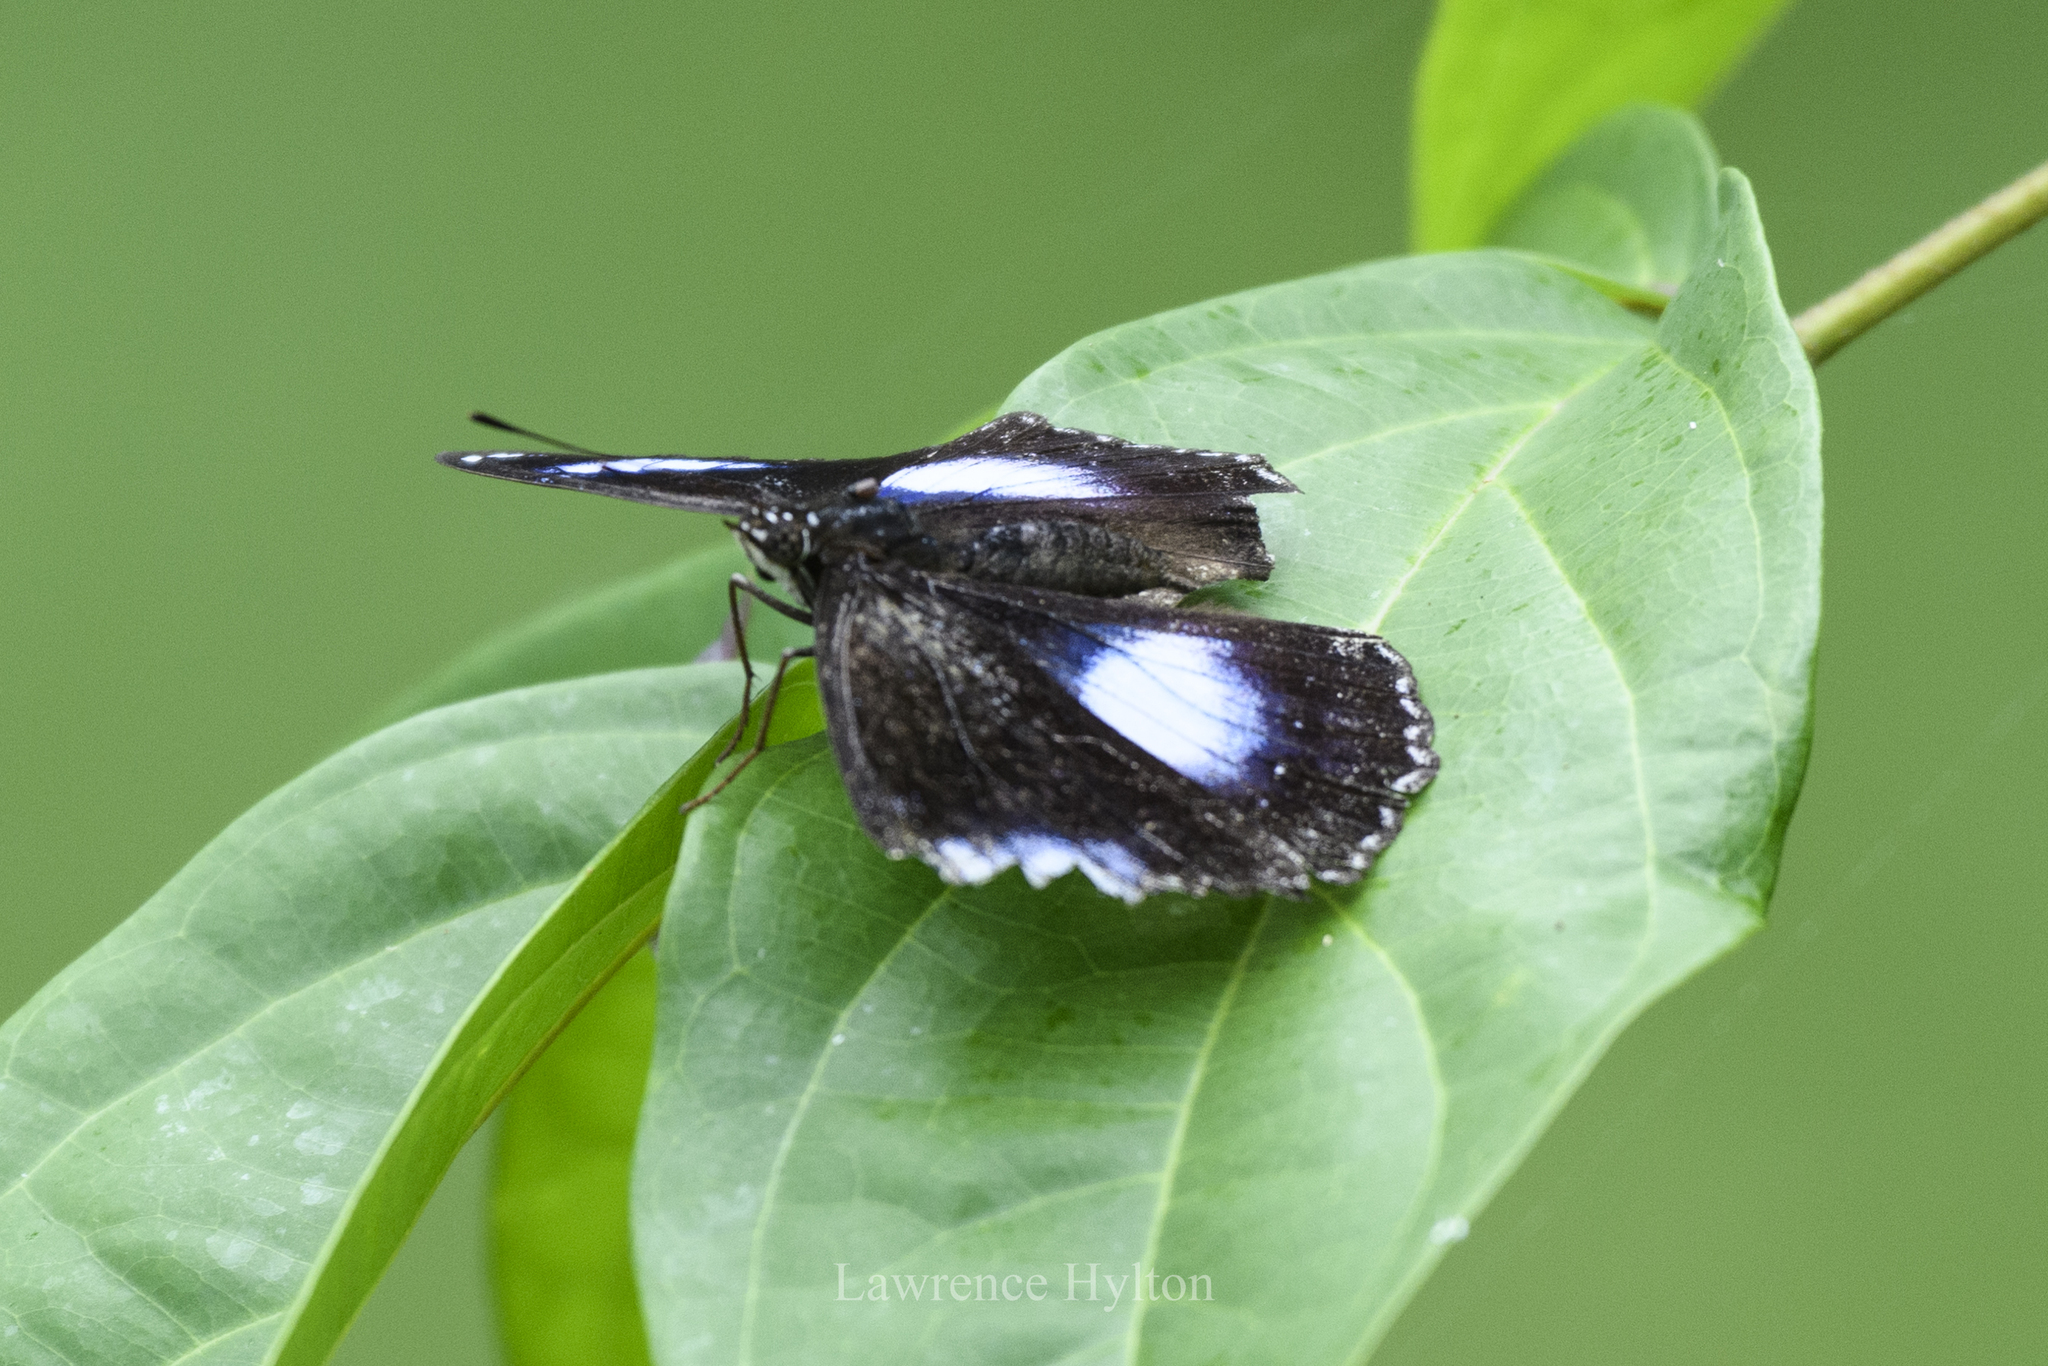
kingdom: Animalia
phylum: Arthropoda
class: Insecta
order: Lepidoptera
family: Nymphalidae
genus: Hypolimnas
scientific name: Hypolimnas bolina
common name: Great eggfly
